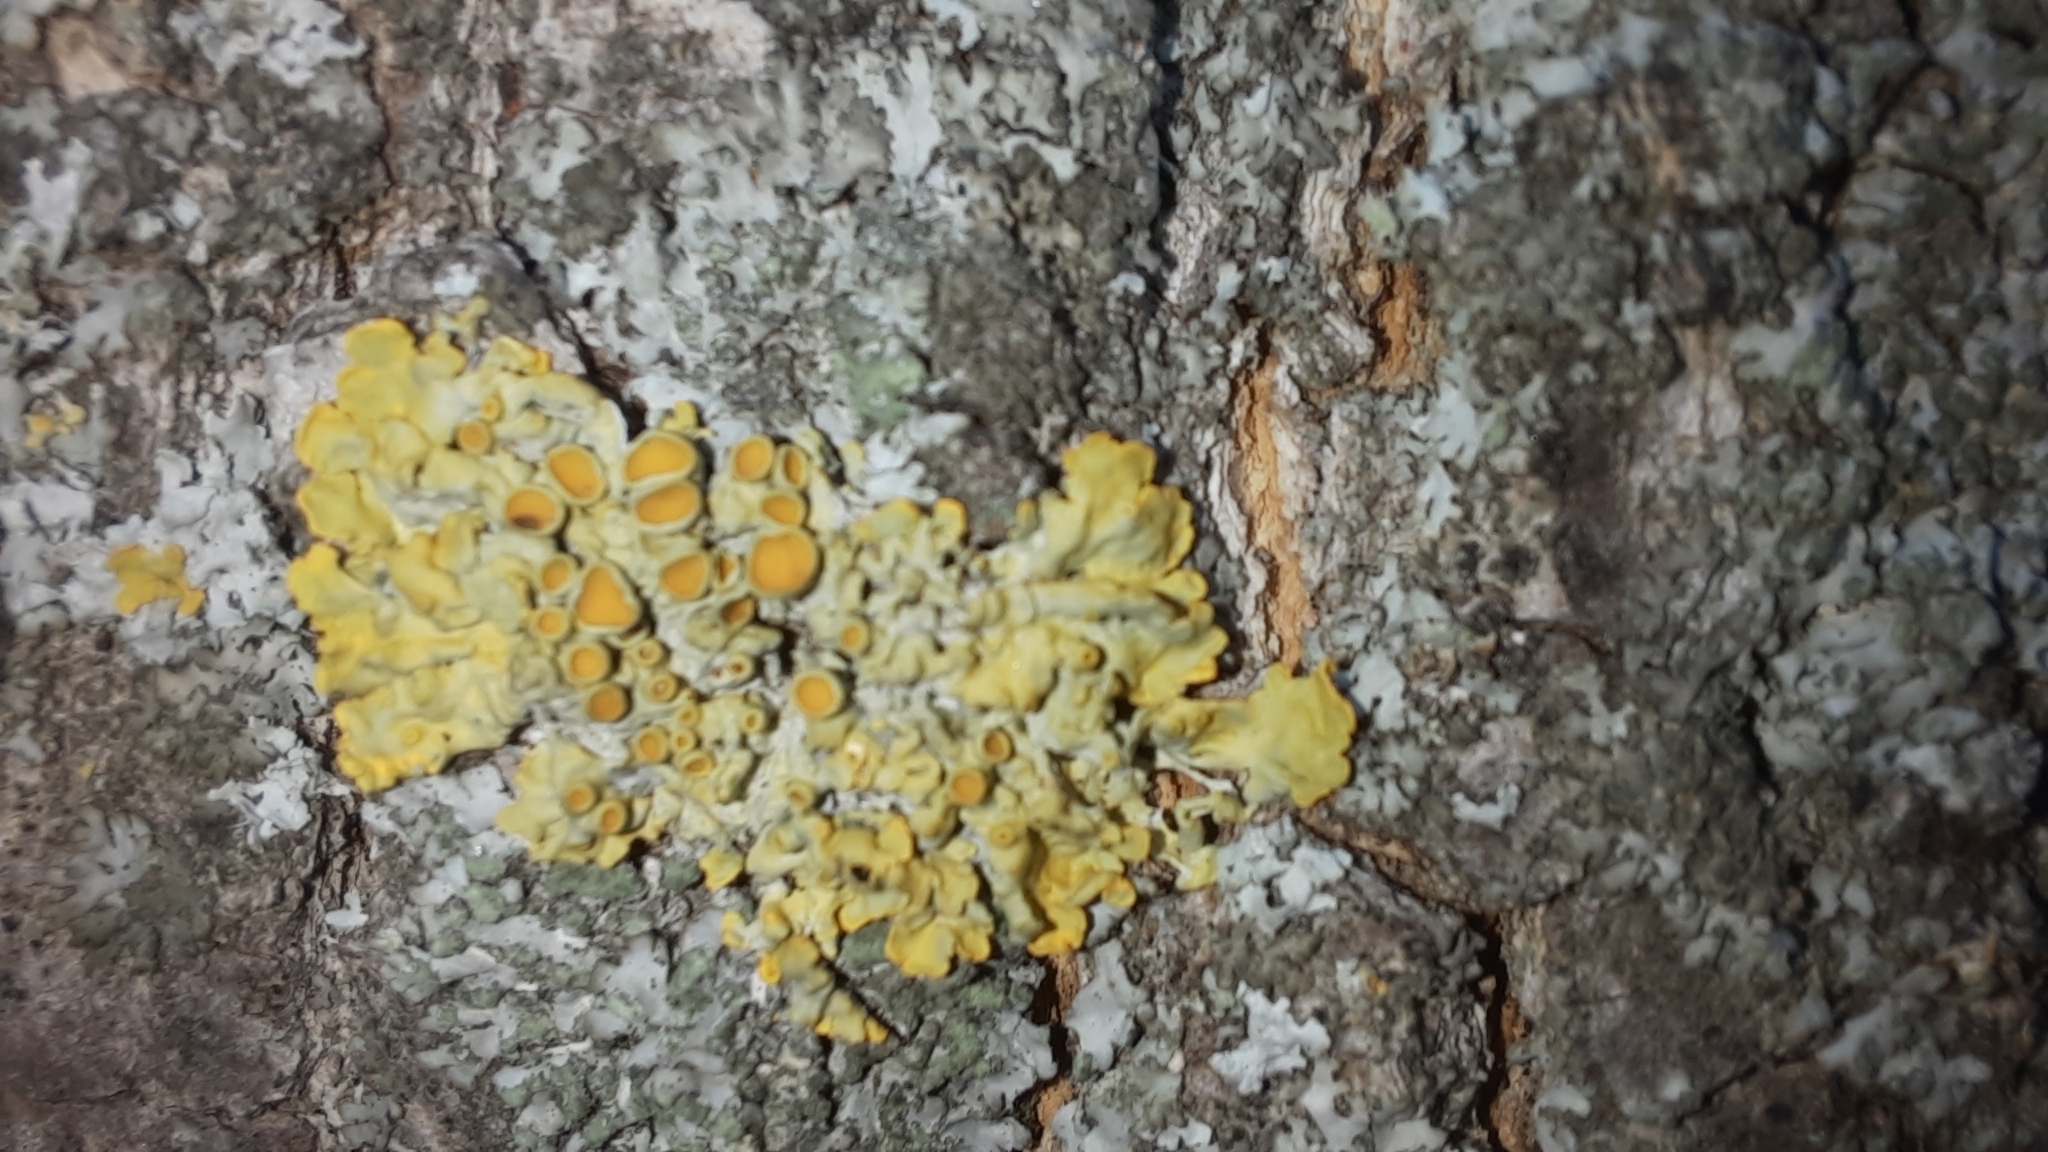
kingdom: Fungi
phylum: Ascomycota
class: Lecanoromycetes
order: Teloschistales
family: Teloschistaceae
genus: Xanthoria
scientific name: Xanthoria parietina
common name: Common orange lichen
